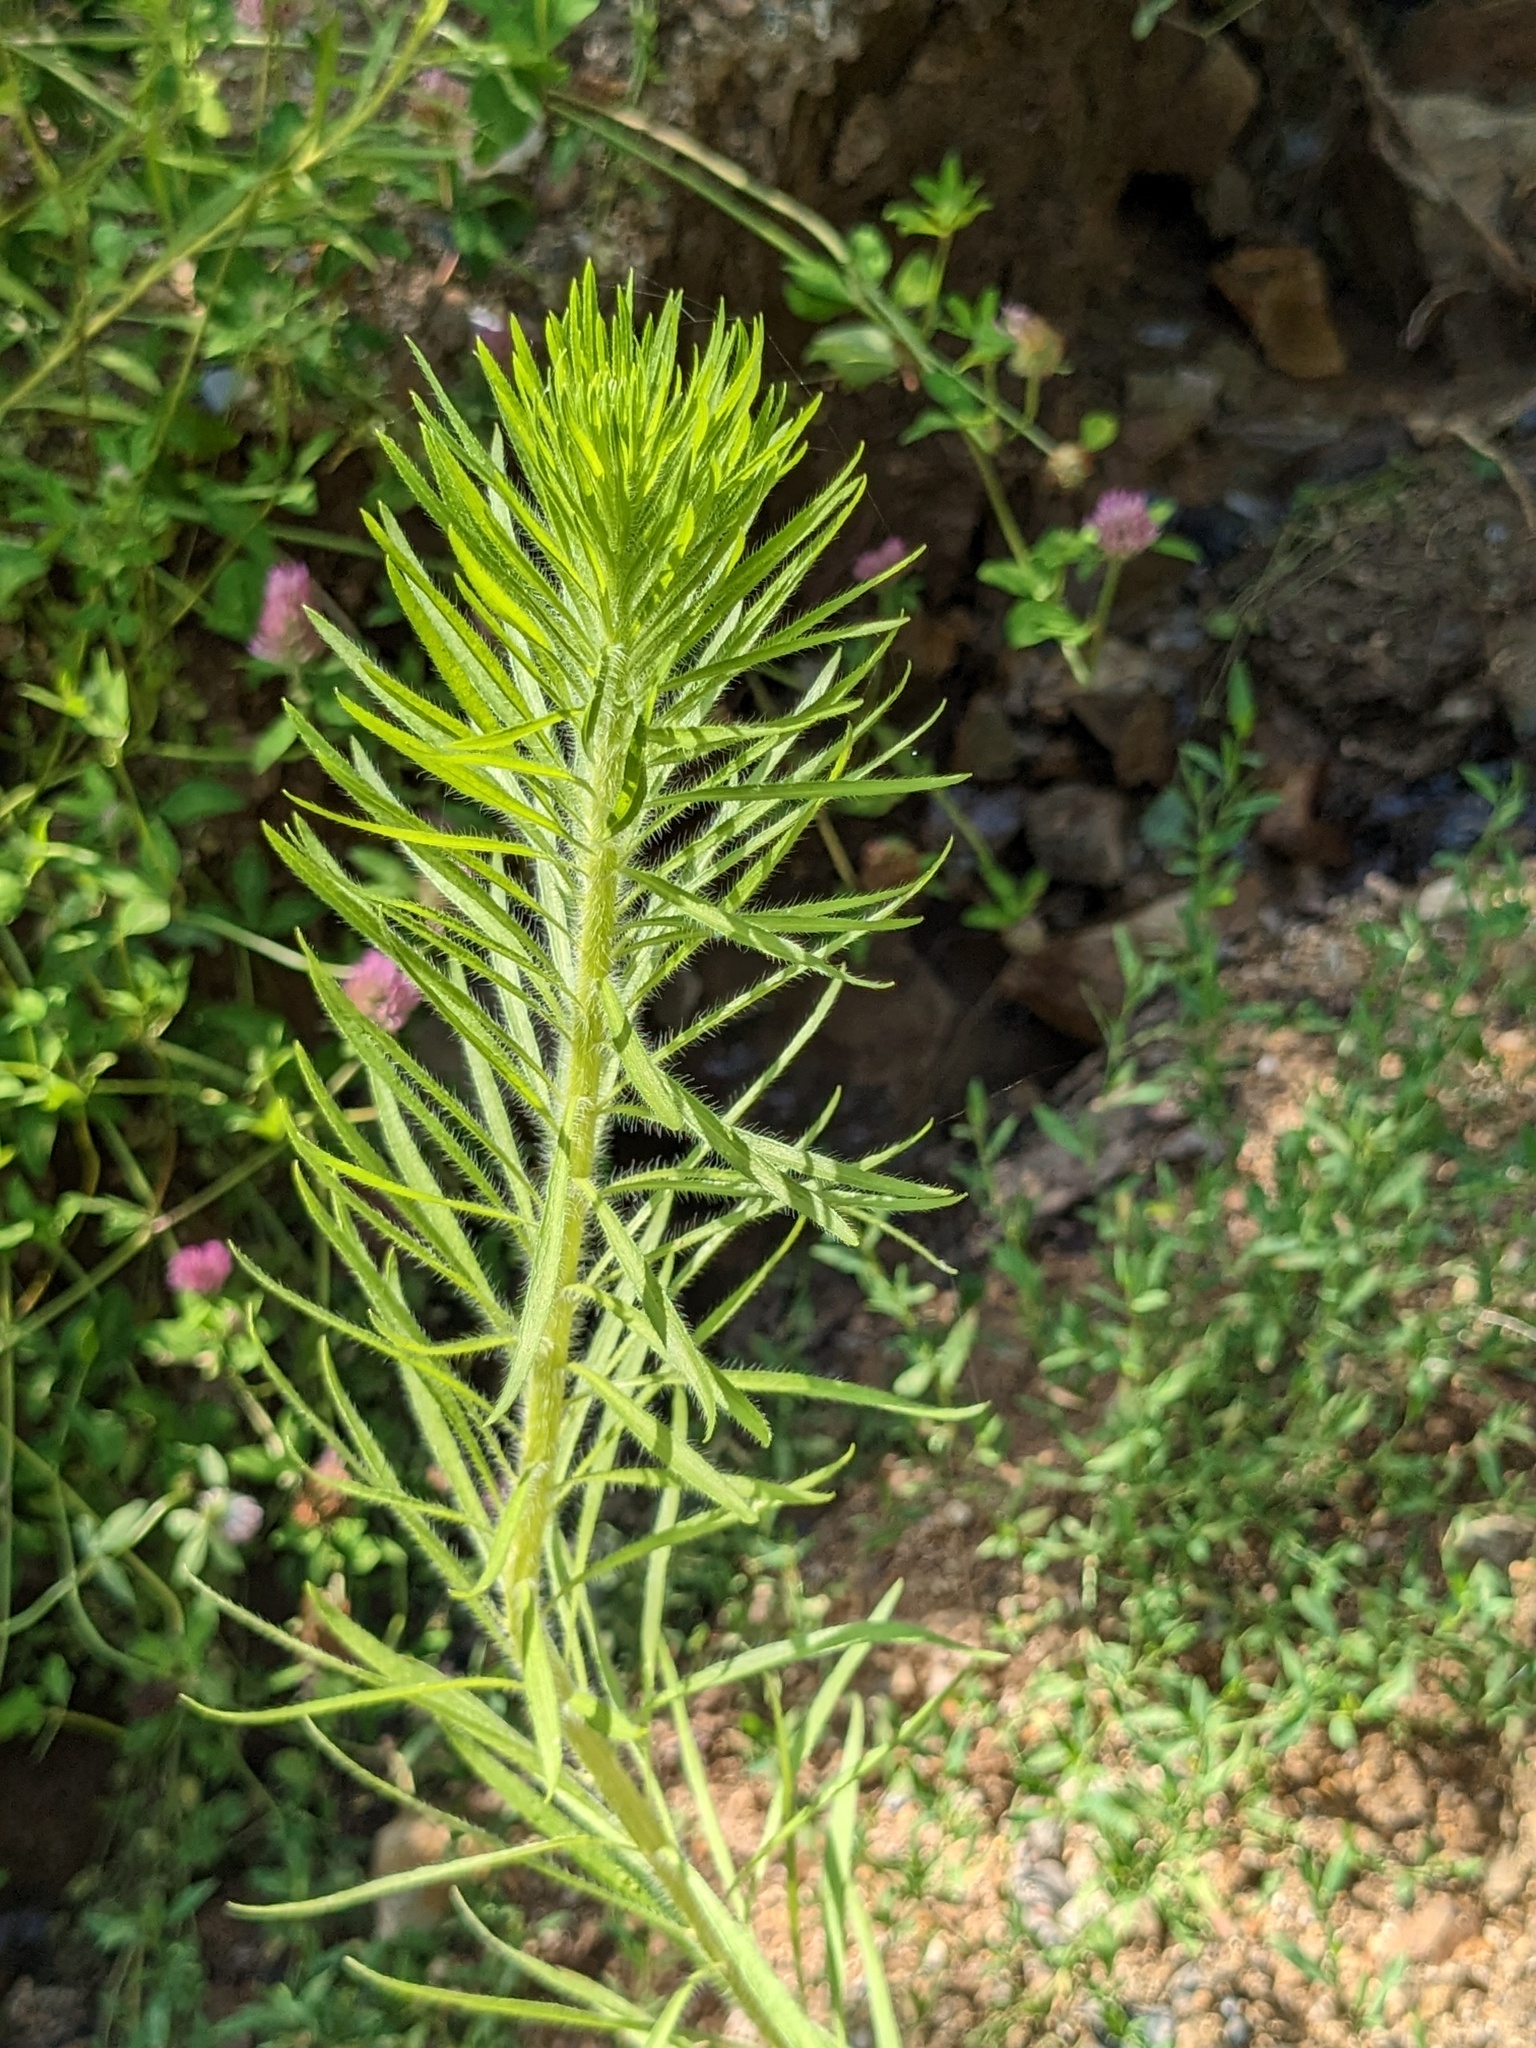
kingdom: Plantae
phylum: Tracheophyta
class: Magnoliopsida
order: Asterales
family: Asteraceae
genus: Erigeron
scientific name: Erigeron canadensis
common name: Canadian fleabane
